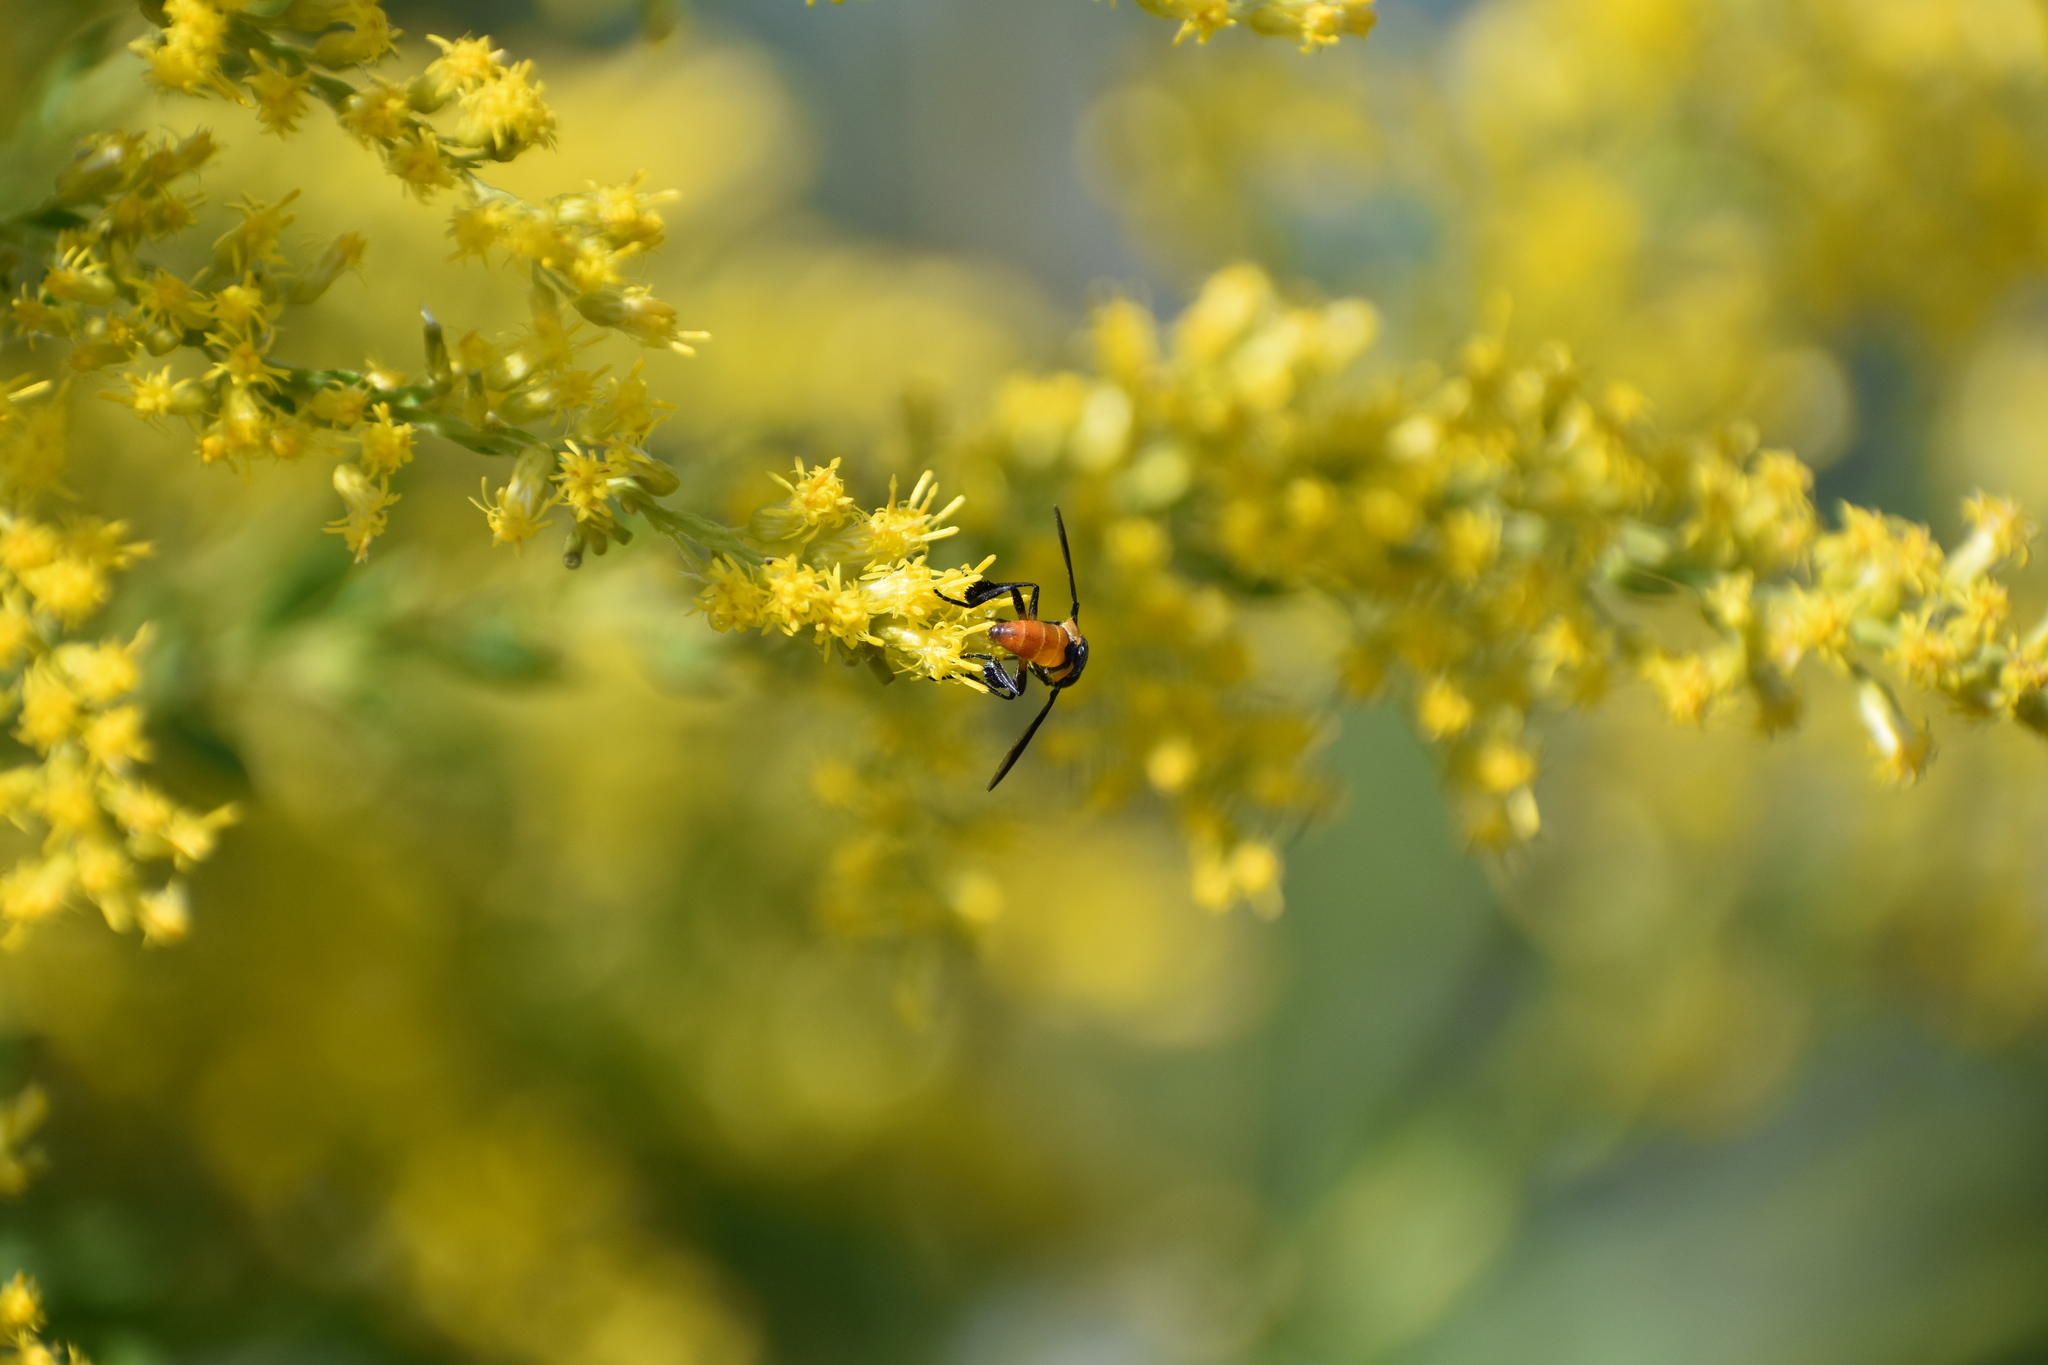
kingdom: Animalia
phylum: Arthropoda
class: Insecta
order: Diptera
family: Tachinidae
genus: Trichopoda
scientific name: Trichopoda pennipes
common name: Tachinid fly
